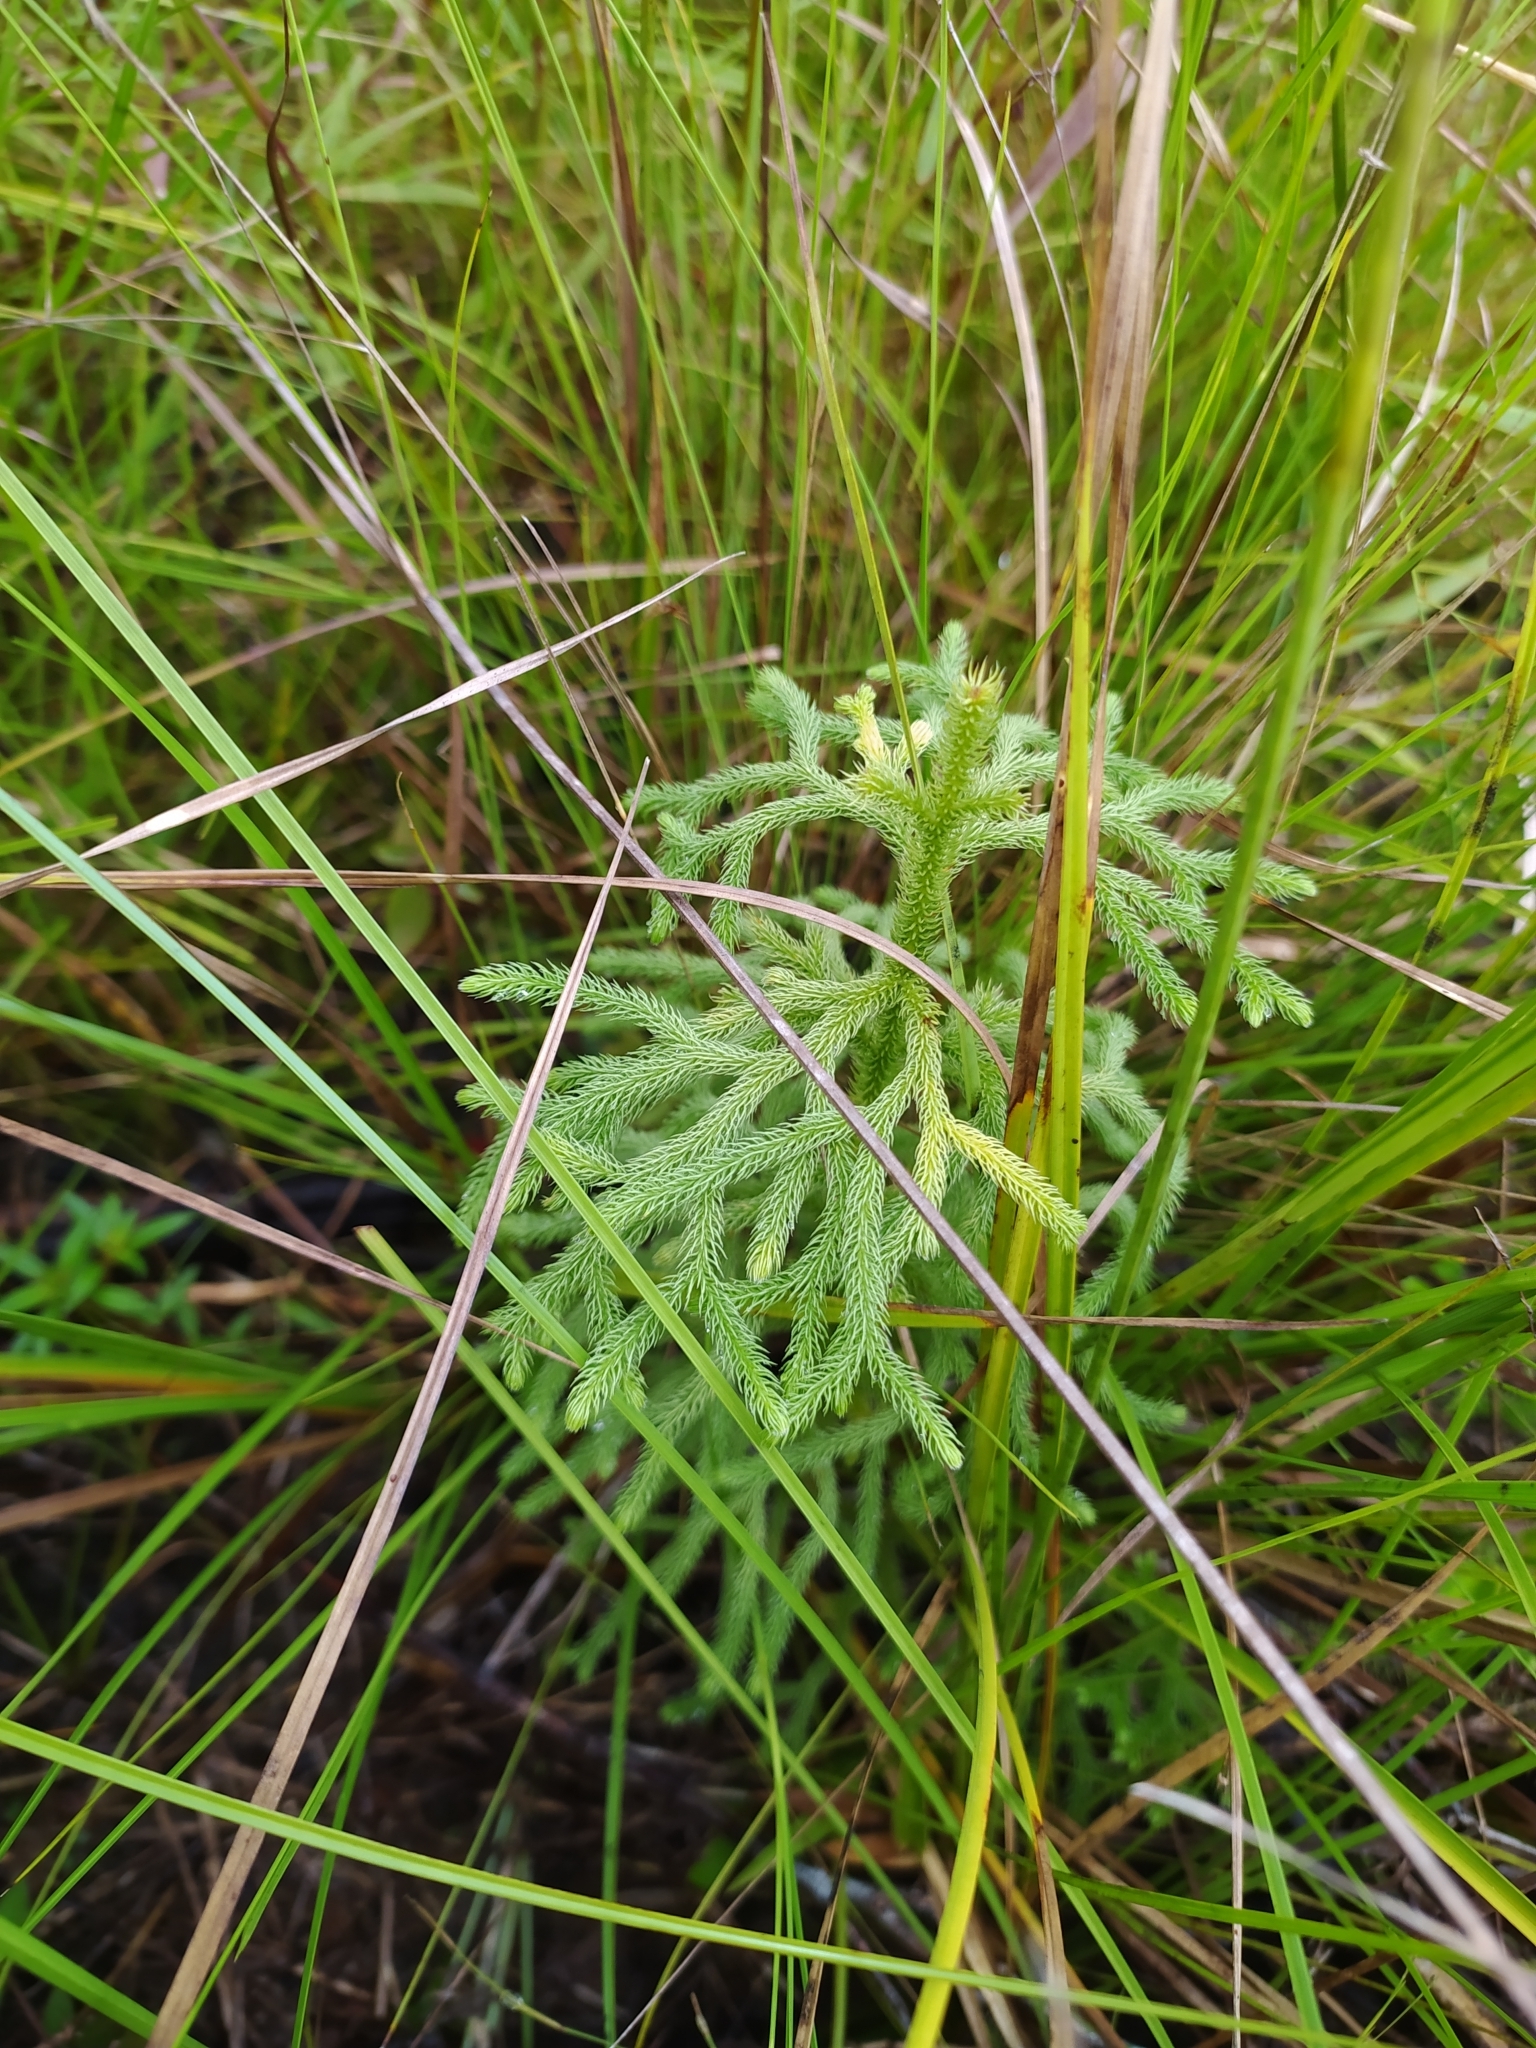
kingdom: Plantae
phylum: Tracheophyta
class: Lycopodiopsida
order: Lycopodiales
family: Lycopodiaceae
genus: Palhinhaea
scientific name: Palhinhaea cernua
